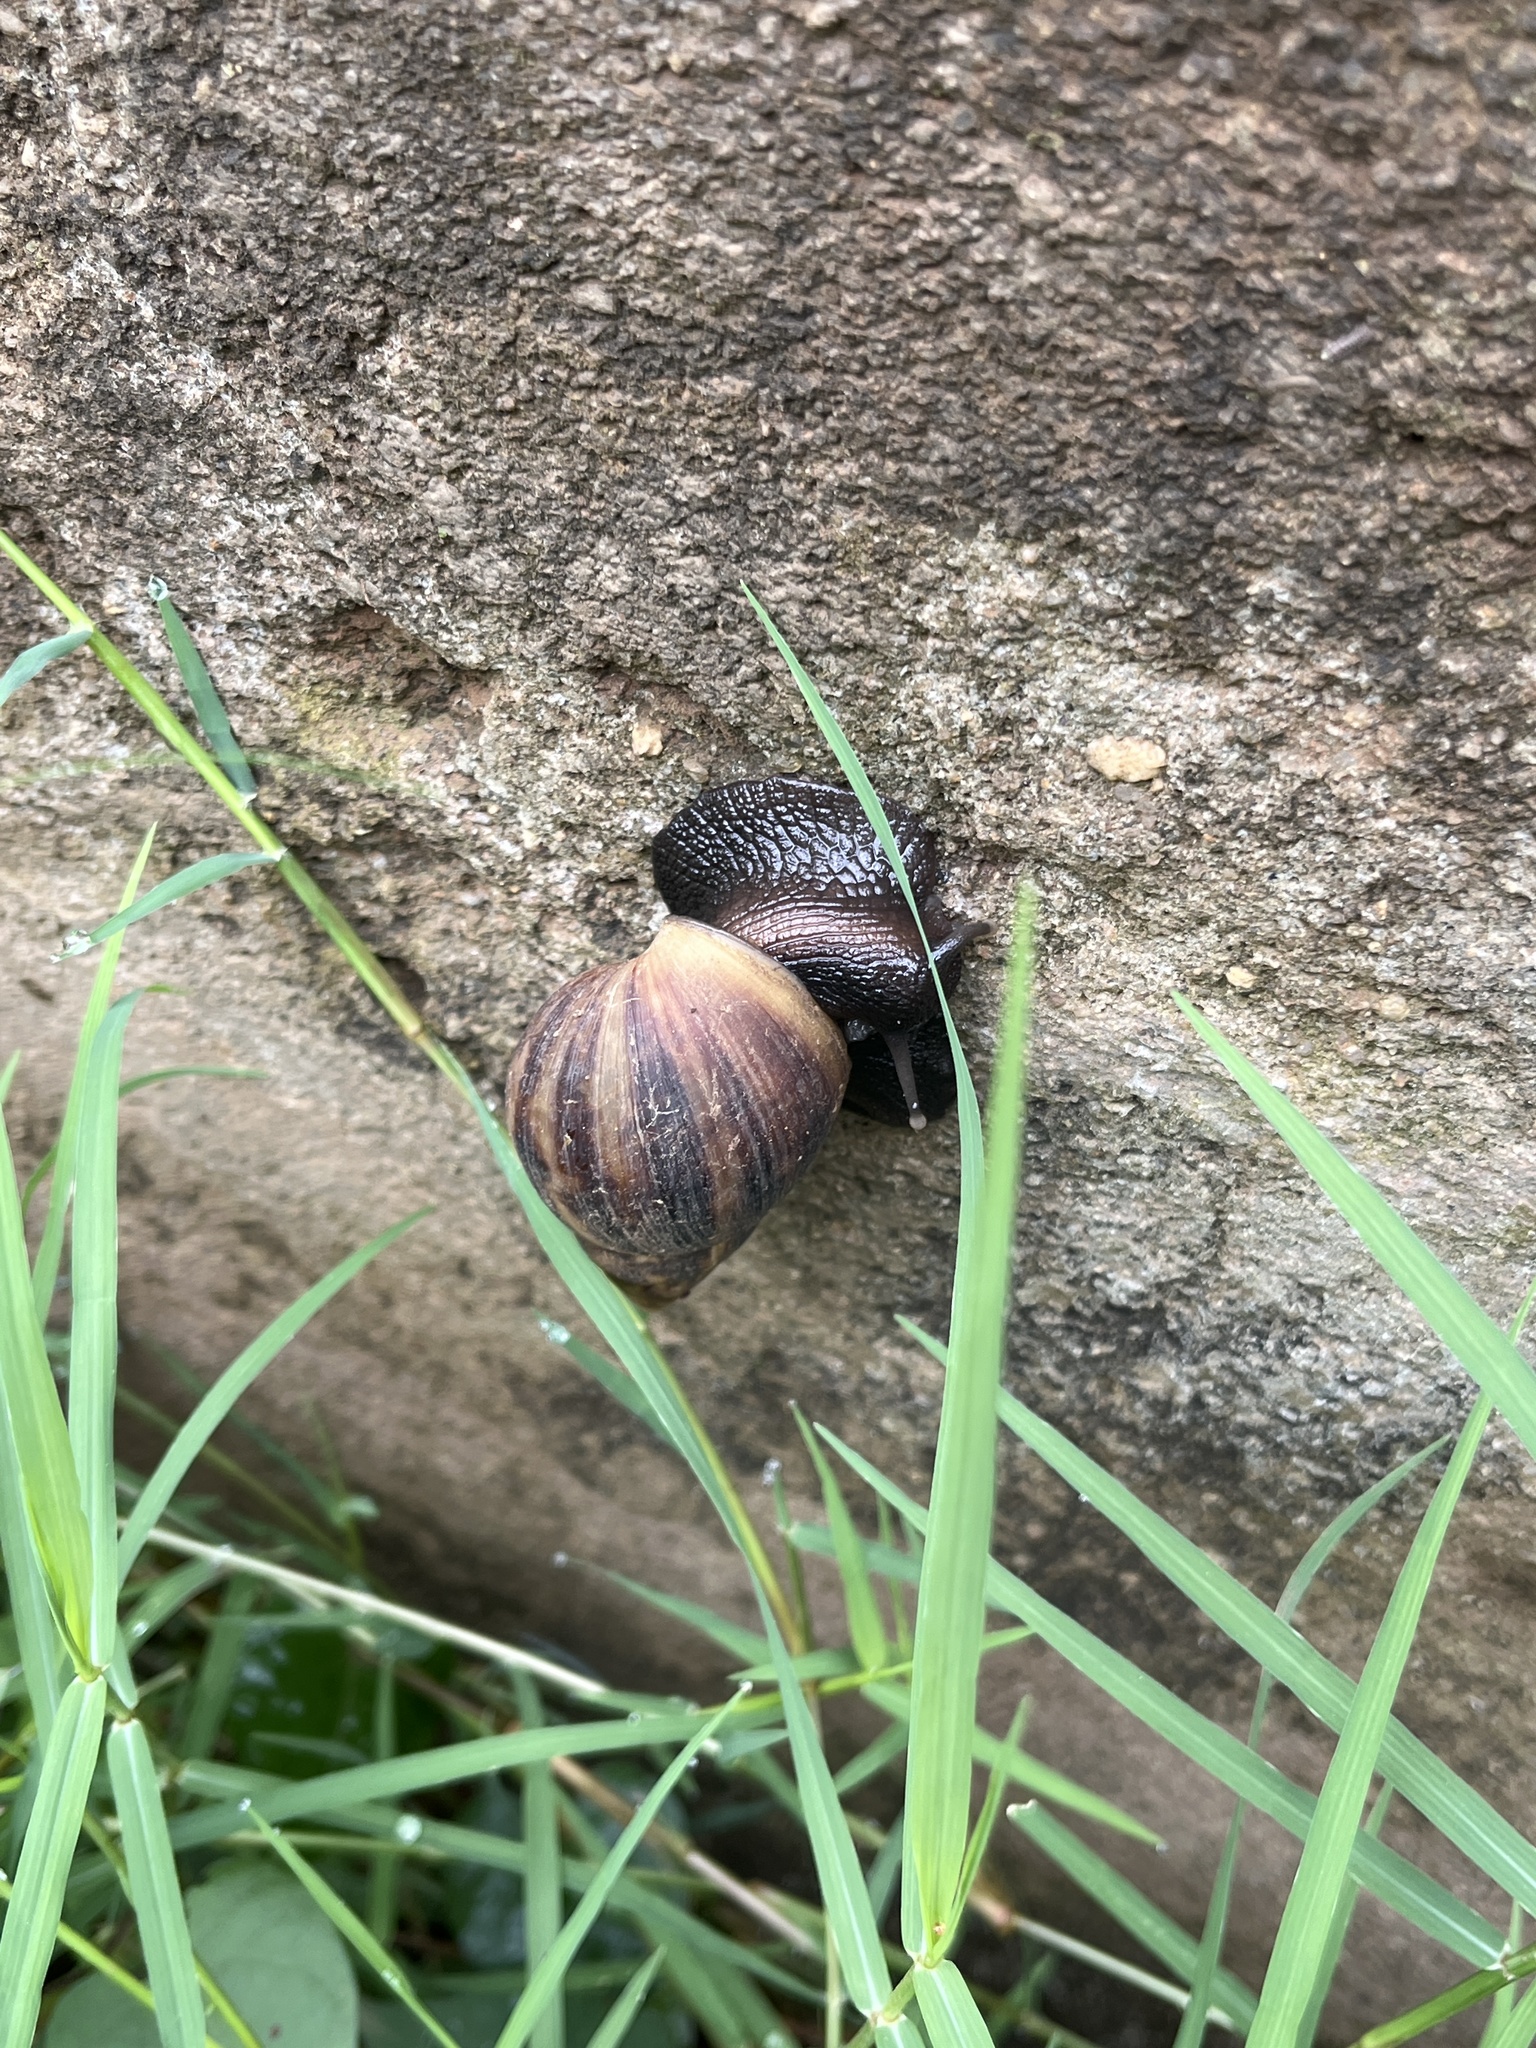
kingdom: Animalia
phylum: Mollusca
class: Gastropoda
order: Stylommatophora
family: Achatinidae
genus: Lissachatina
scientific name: Lissachatina fulica
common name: Giant african snail
